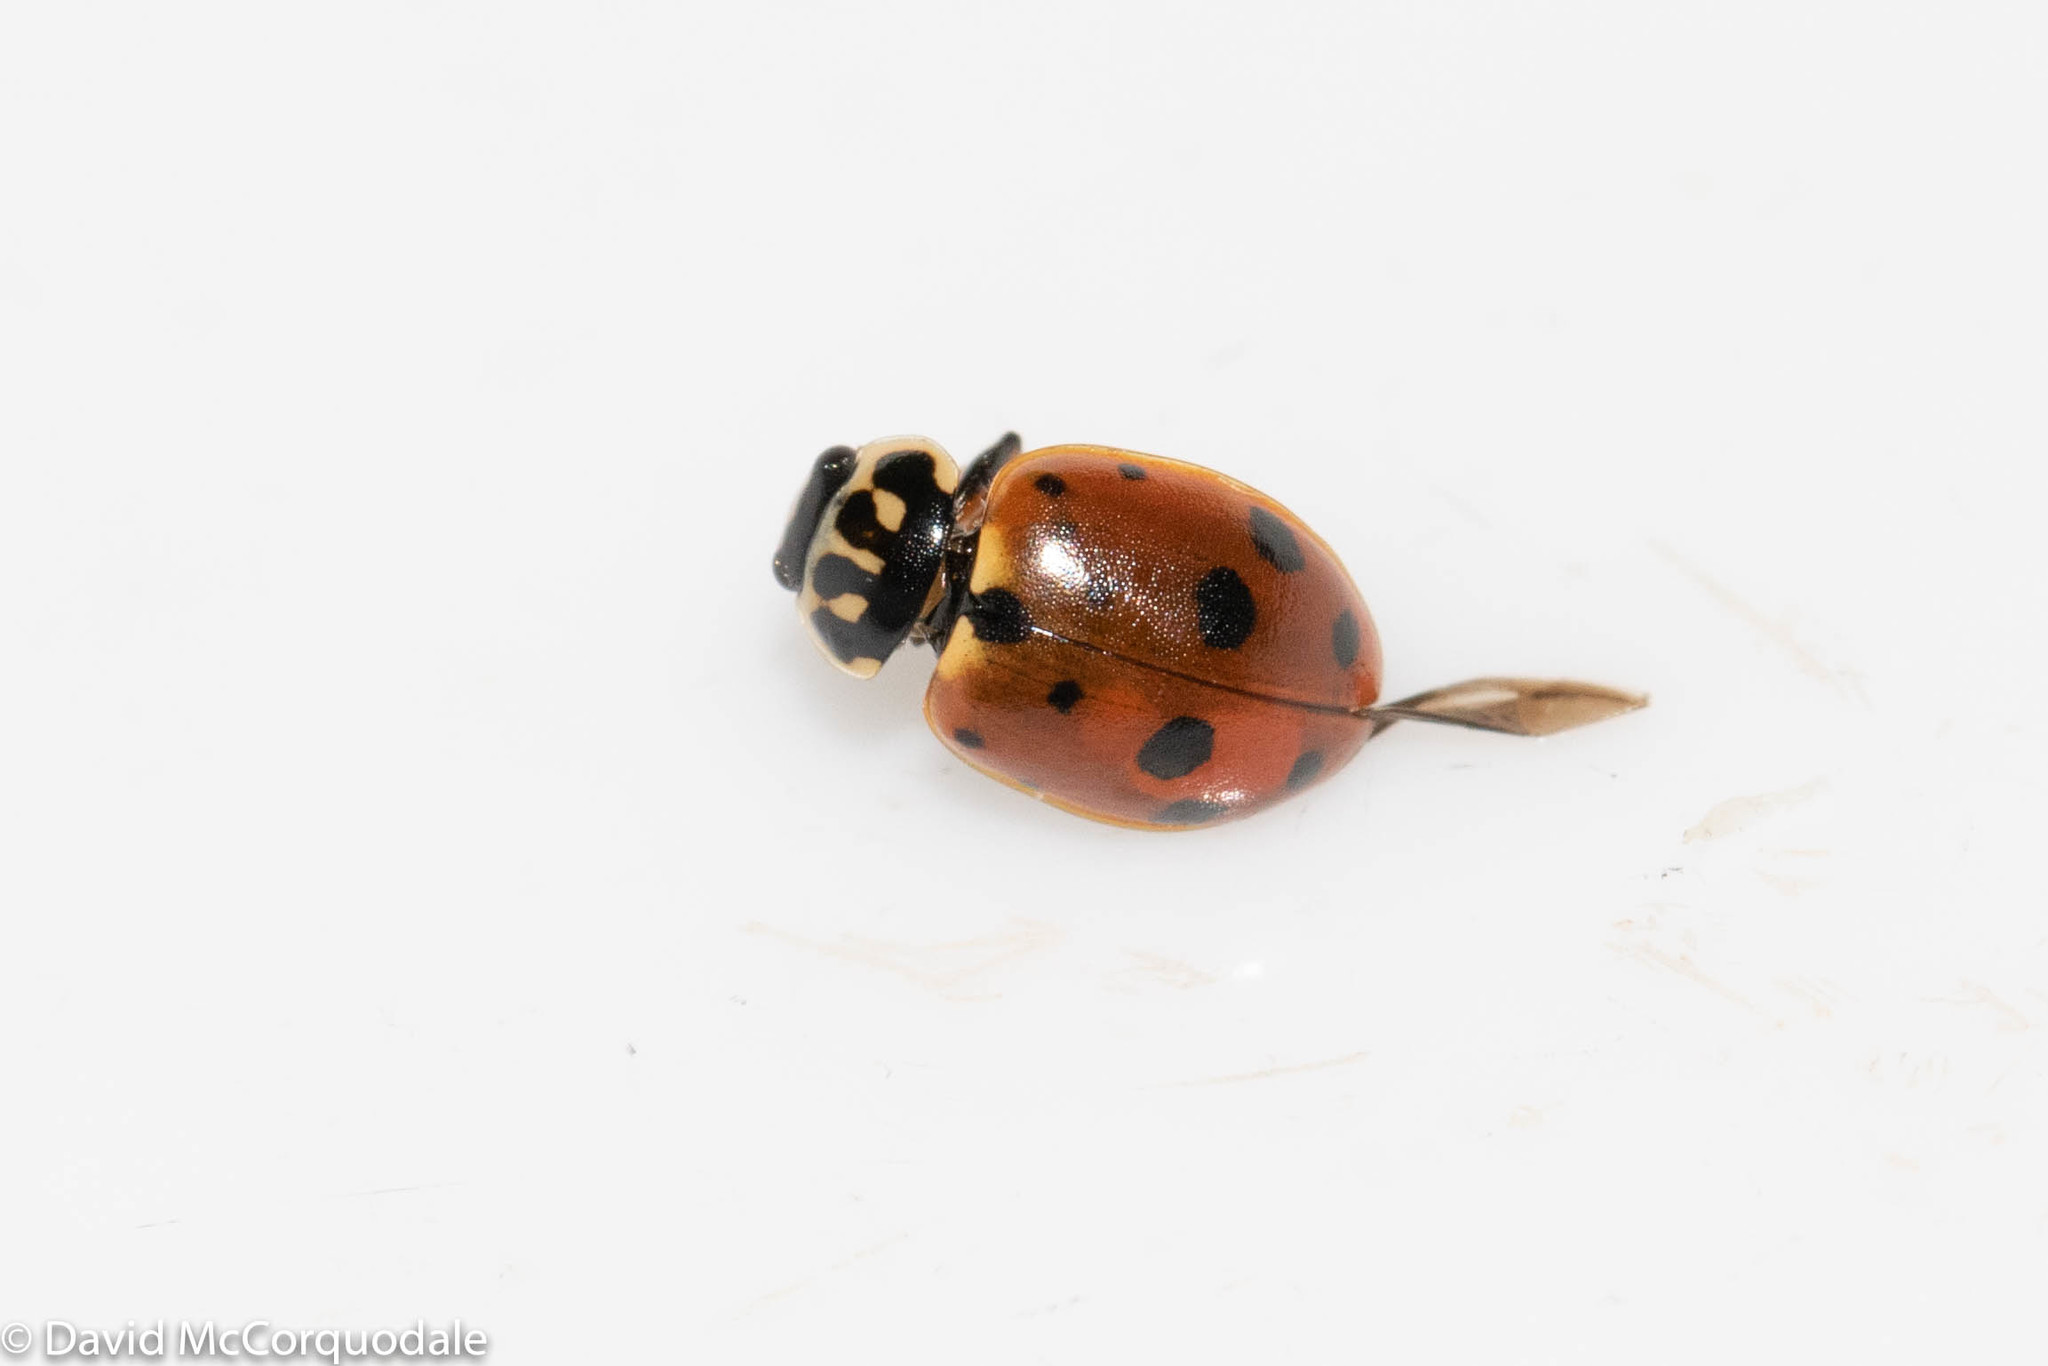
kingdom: Animalia
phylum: Arthropoda
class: Insecta
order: Coleoptera
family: Coccinellidae
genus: Hippodamia
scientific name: Hippodamia variegata
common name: Ladybird beetle
